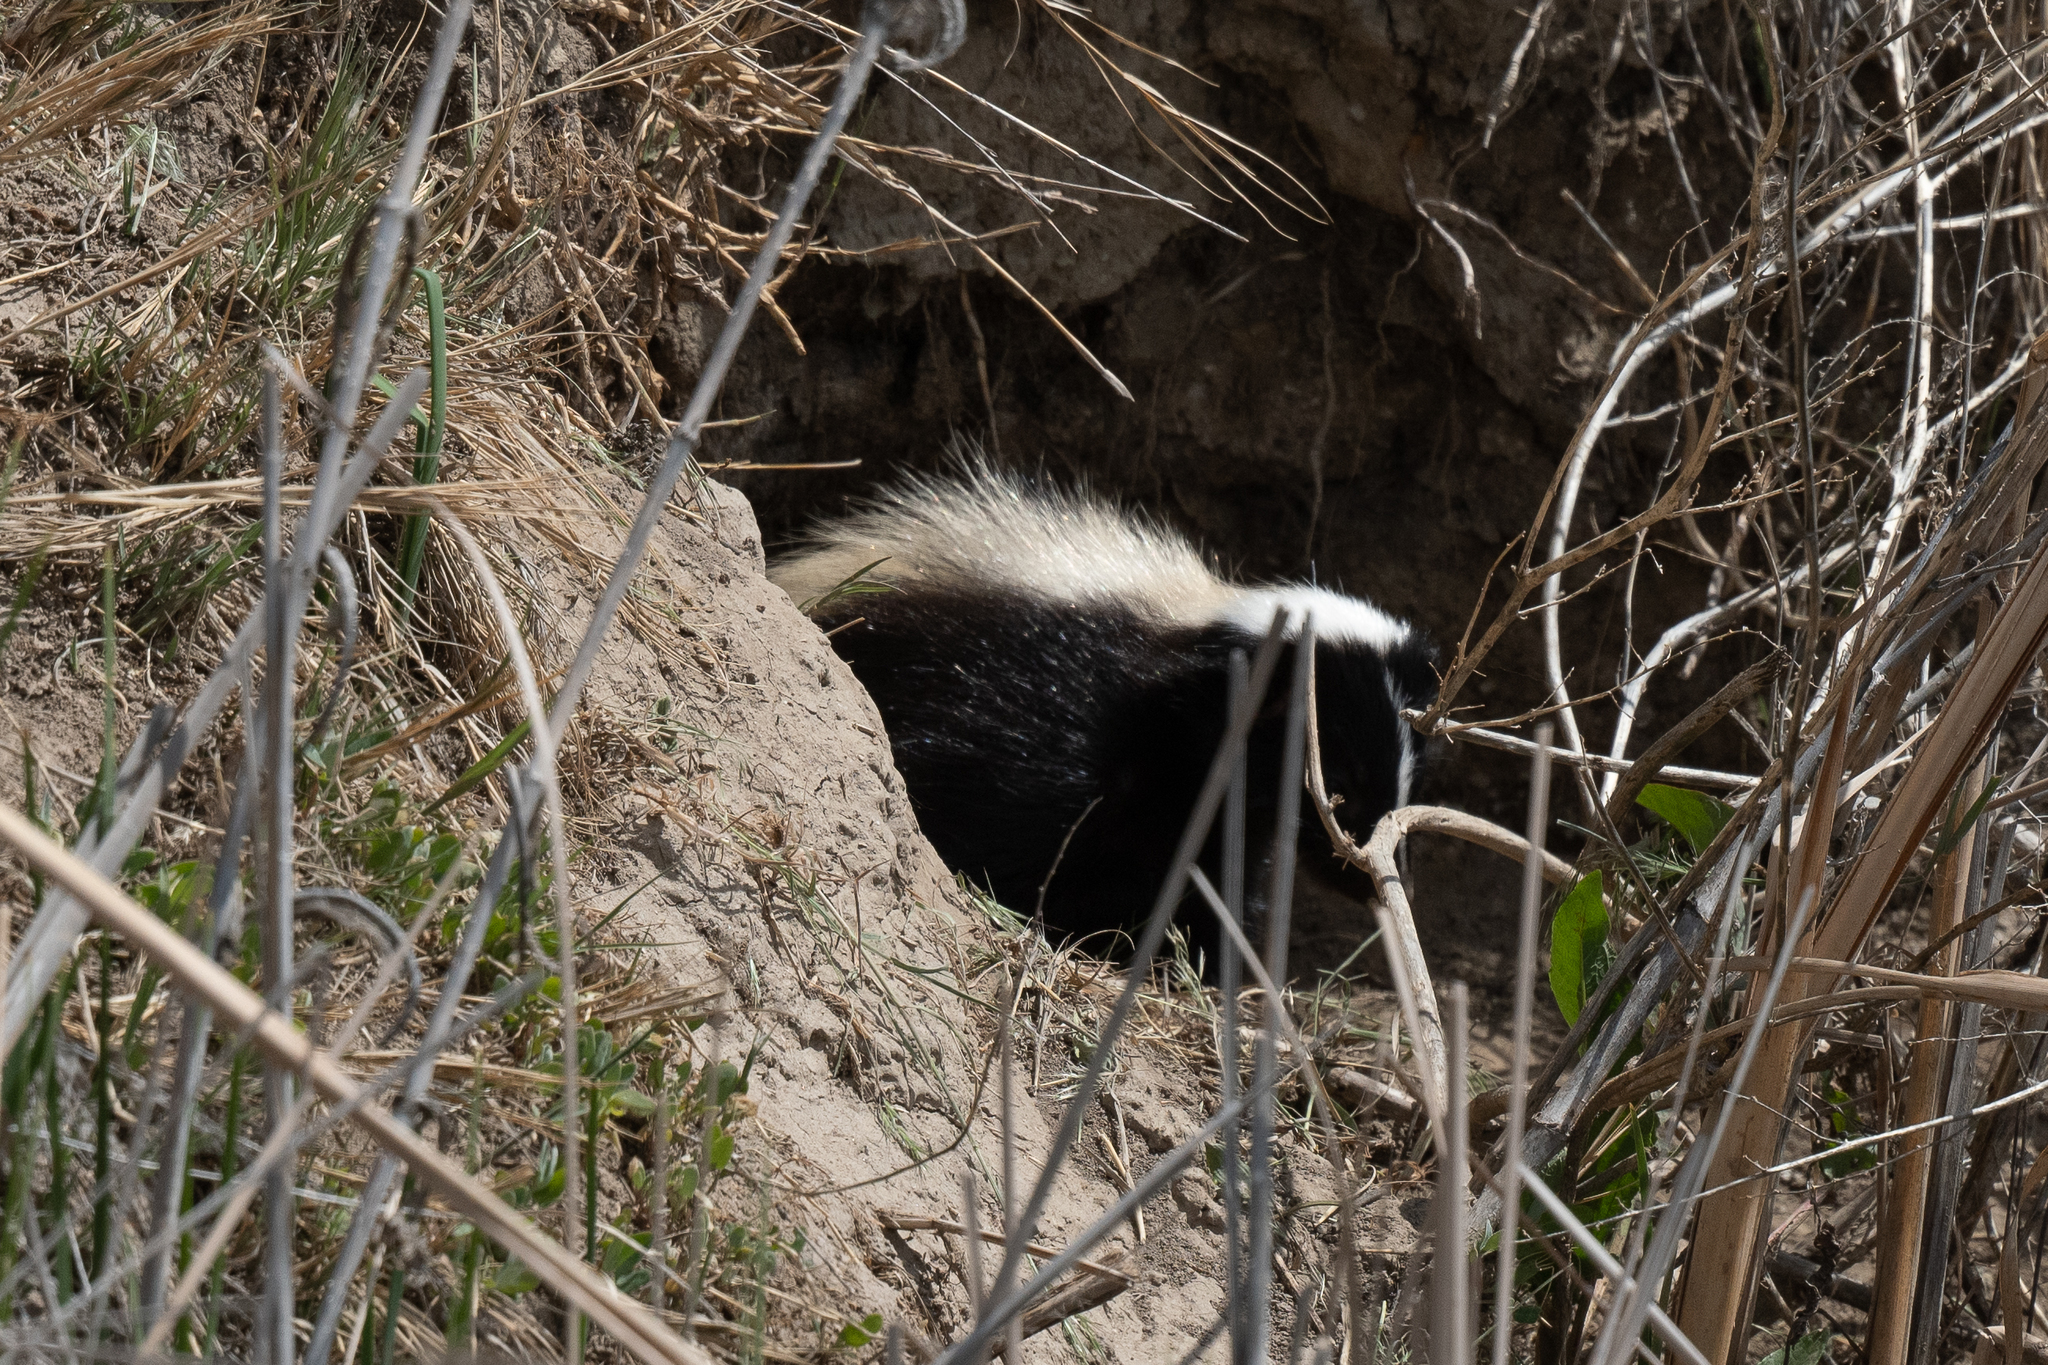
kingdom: Animalia
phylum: Chordata
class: Mammalia
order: Carnivora
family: Mephitidae
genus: Mephitis
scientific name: Mephitis mephitis
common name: Striped skunk
